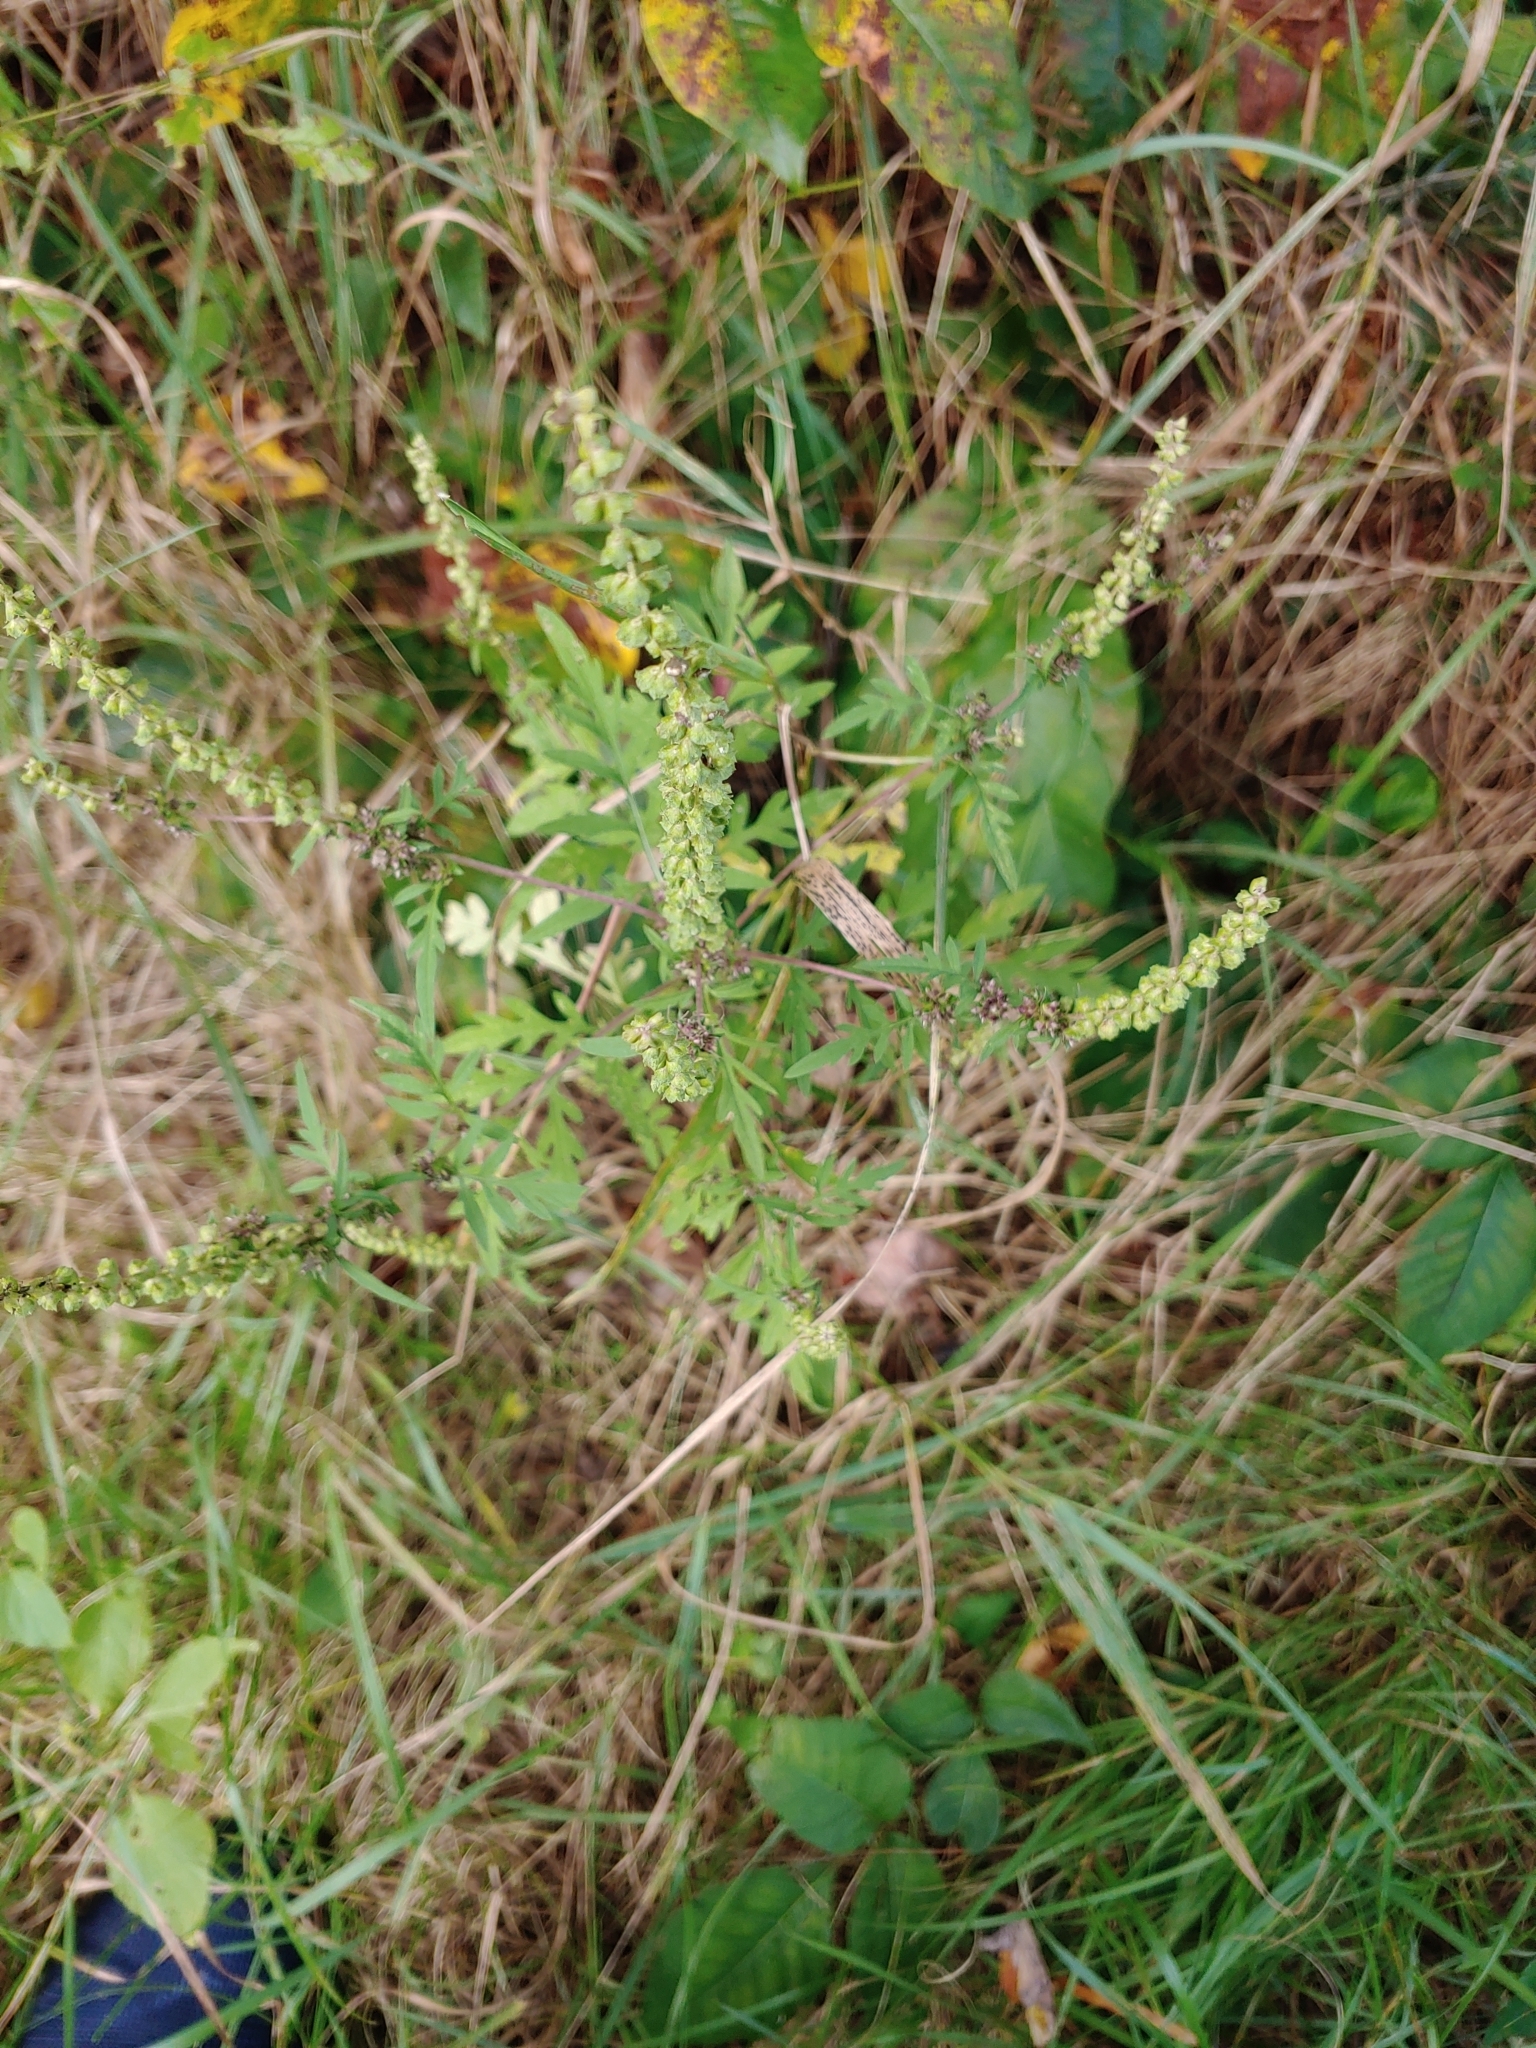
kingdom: Plantae
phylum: Tracheophyta
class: Magnoliopsida
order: Asterales
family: Asteraceae
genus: Ambrosia
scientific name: Ambrosia artemisiifolia
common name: Annual ragweed
